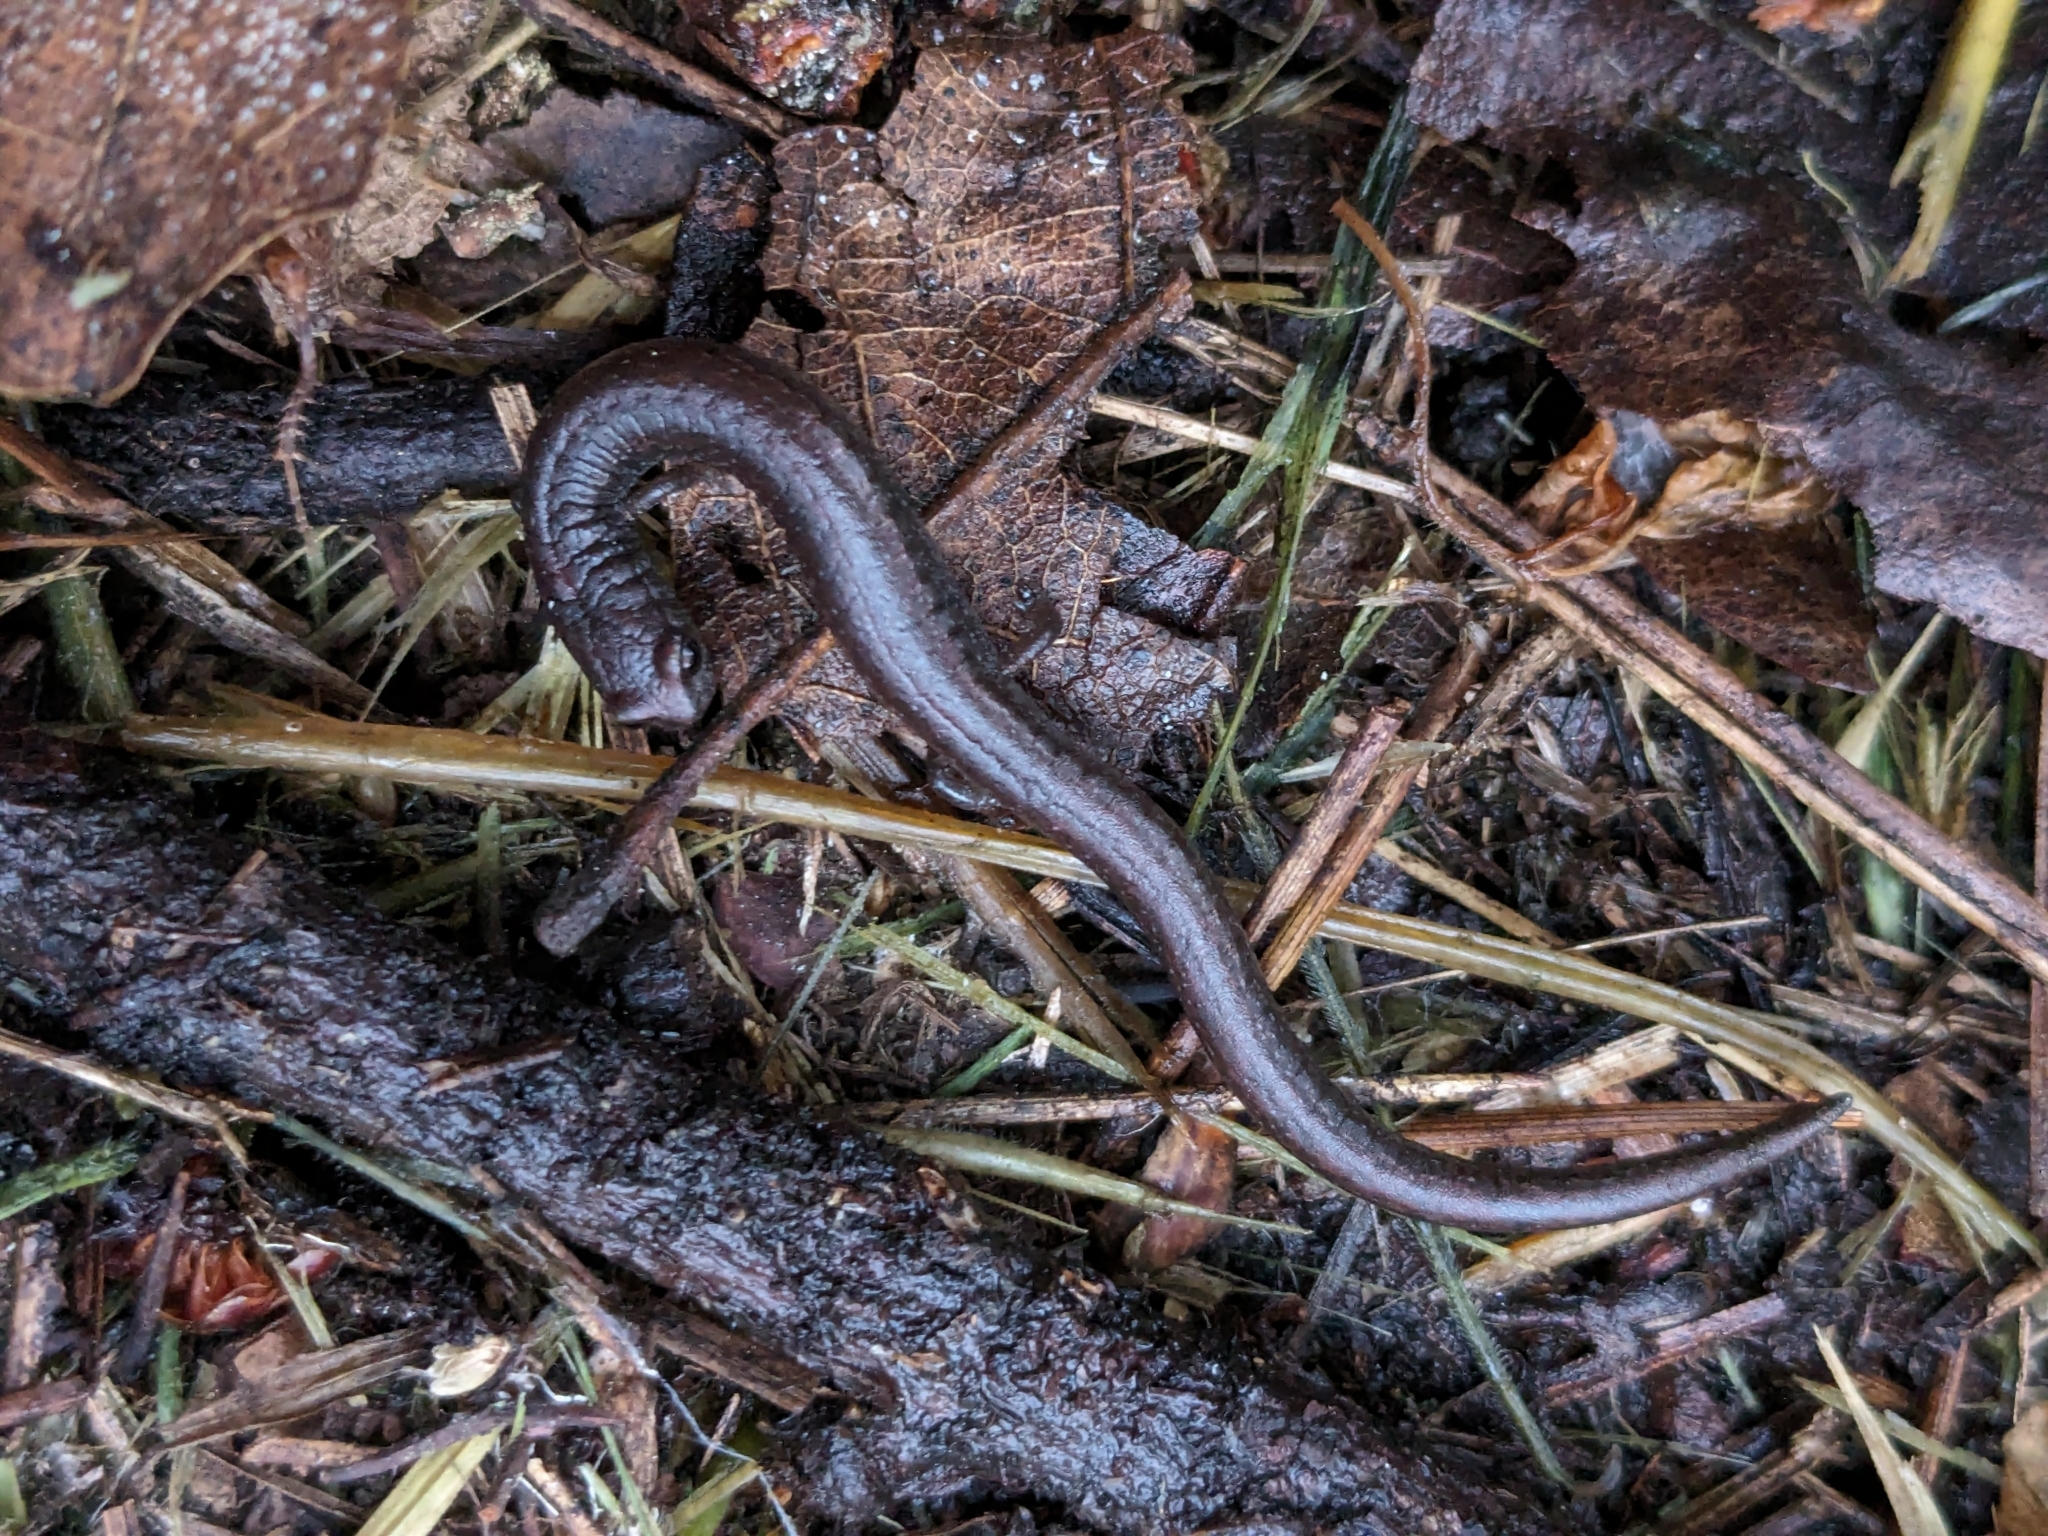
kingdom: Animalia
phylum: Chordata
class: Amphibia
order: Caudata
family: Plethodontidae
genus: Batrachoseps
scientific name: Batrachoseps attenuatus
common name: California slender salamander
